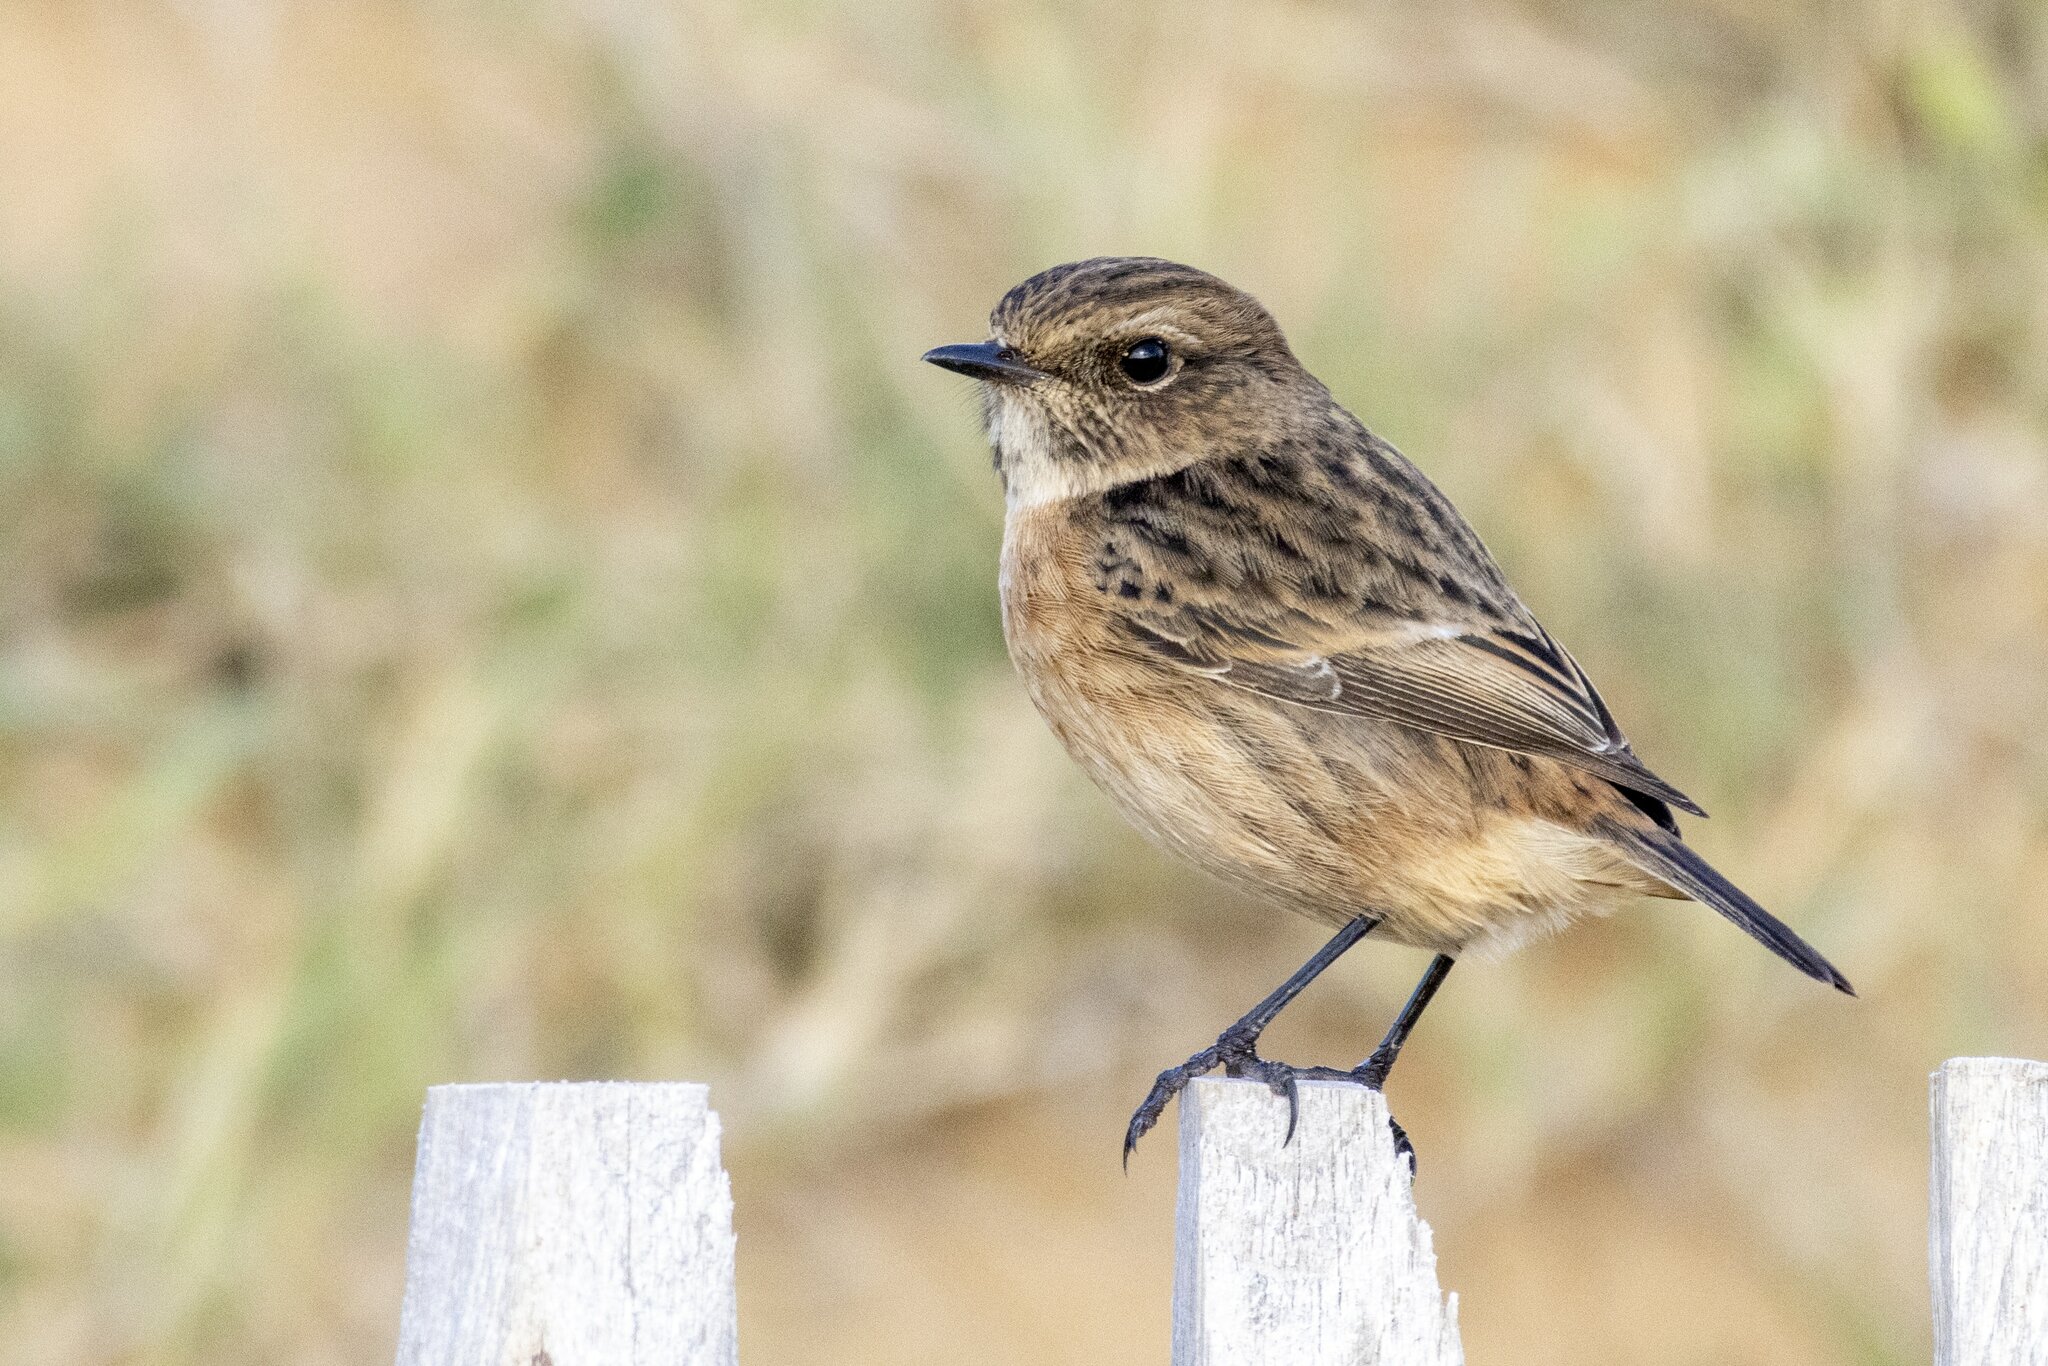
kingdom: Animalia
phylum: Chordata
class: Aves
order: Passeriformes
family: Muscicapidae
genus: Saxicola
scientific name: Saxicola rubicola
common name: European stonechat
